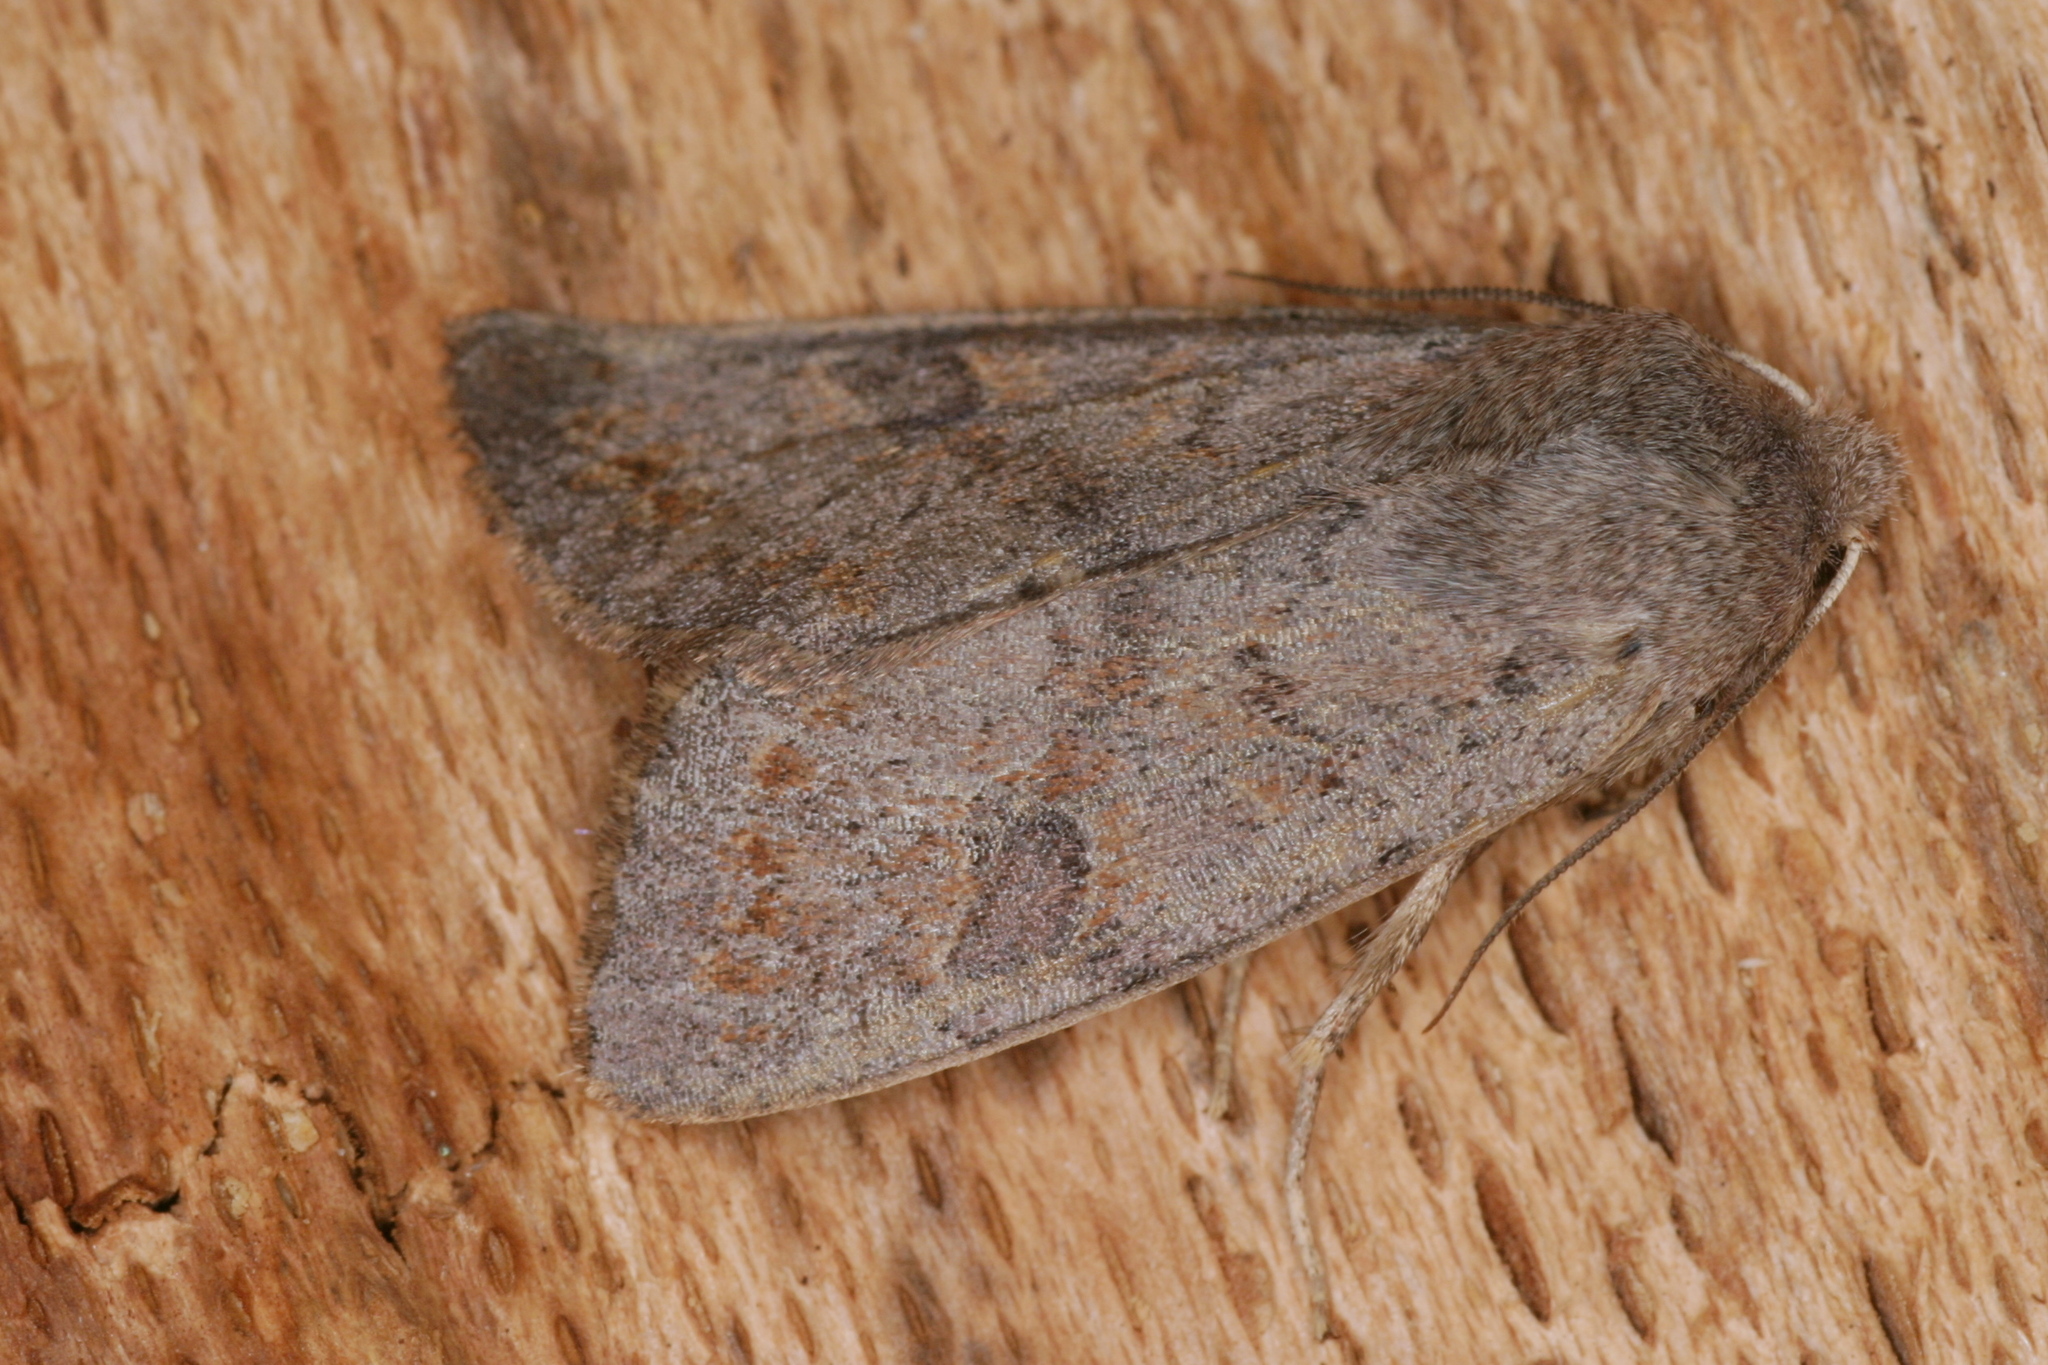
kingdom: Animalia
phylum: Arthropoda
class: Insecta
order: Lepidoptera
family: Noctuidae
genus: Orthosia
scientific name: Orthosia populeti
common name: Lead-coloured drab
